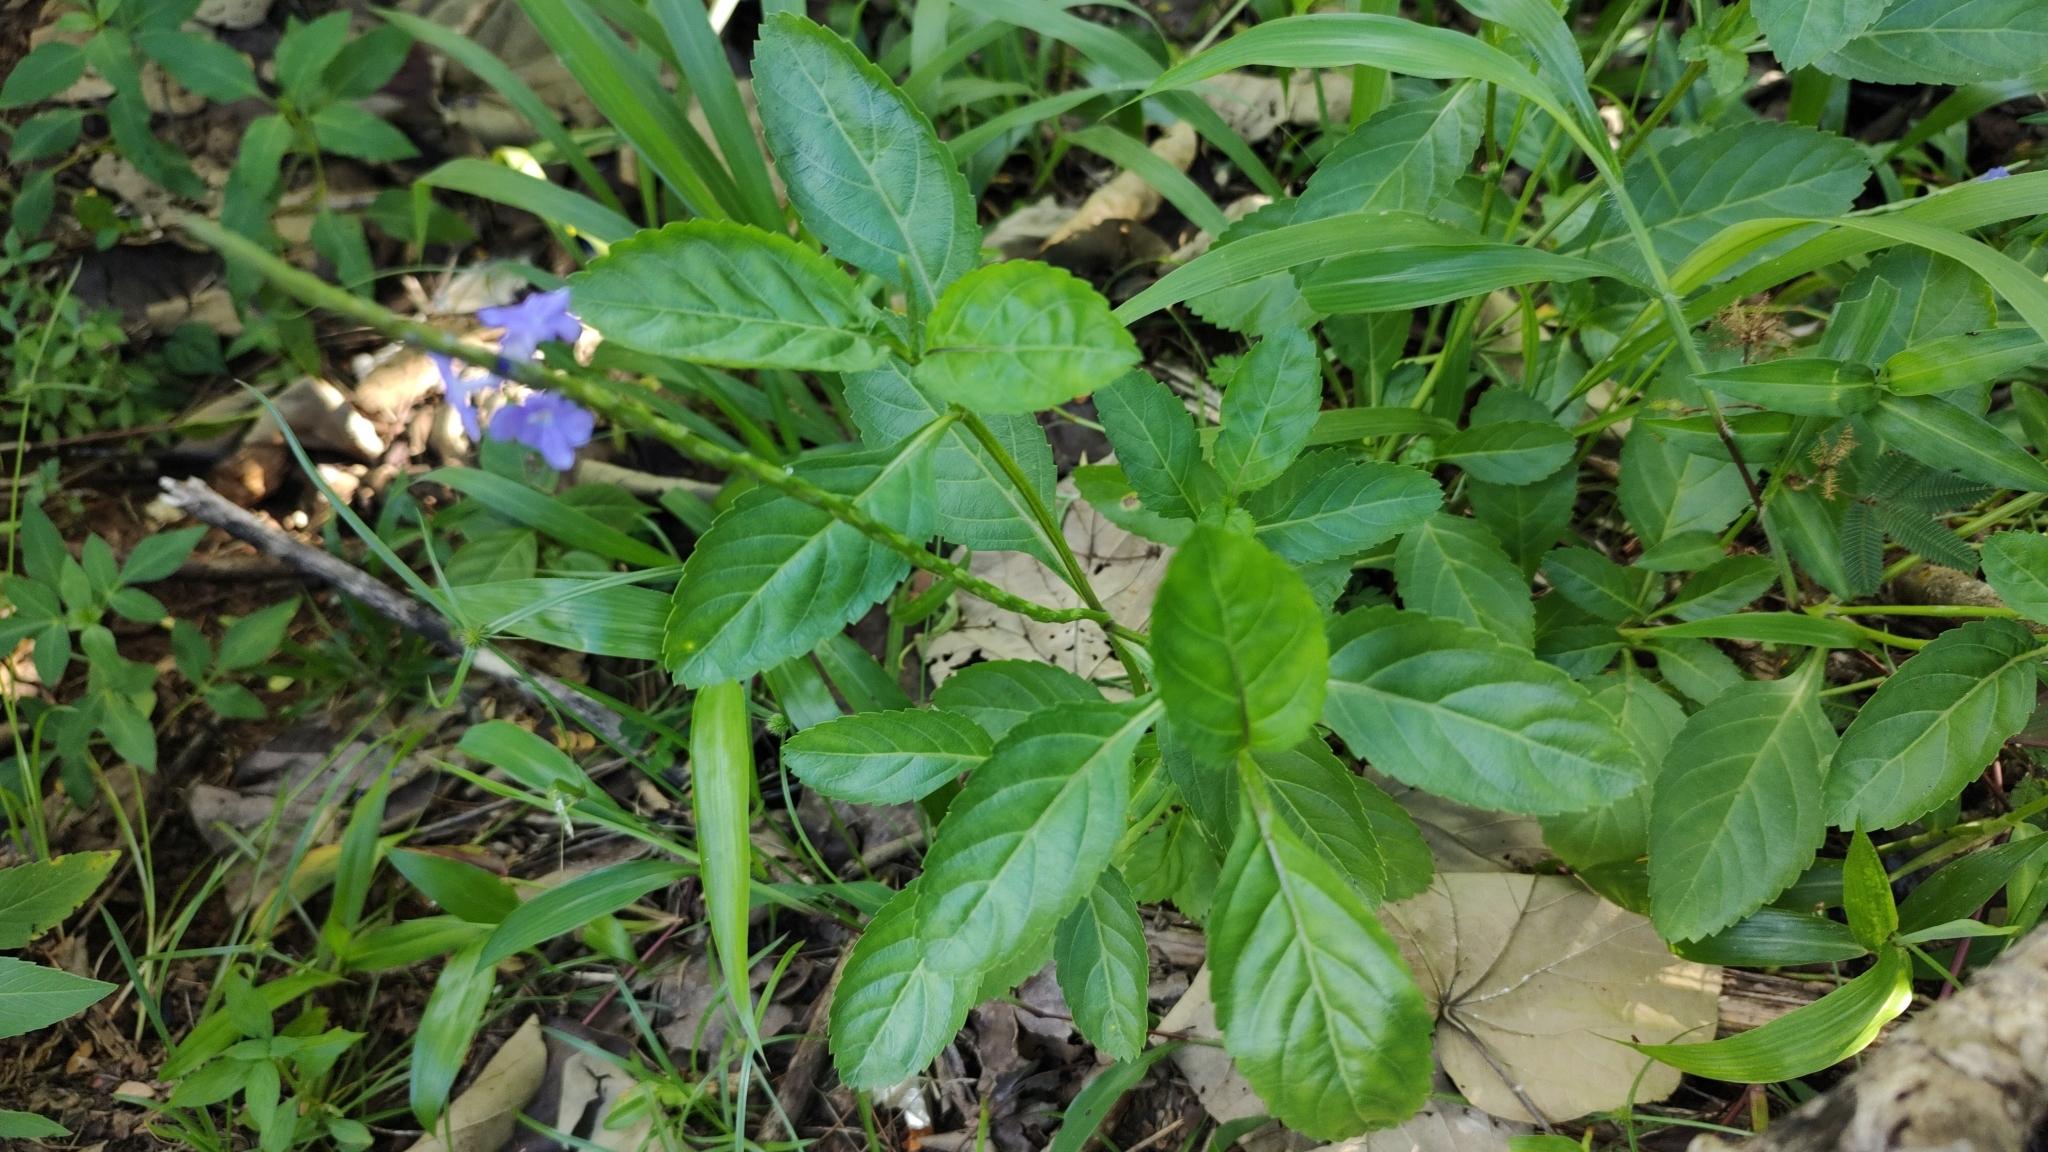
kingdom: Plantae
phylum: Tracheophyta
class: Magnoliopsida
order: Lamiales
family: Verbenaceae
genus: Stachytarpheta
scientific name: Stachytarpheta jamaicensis
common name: Light-blue snakeweed
